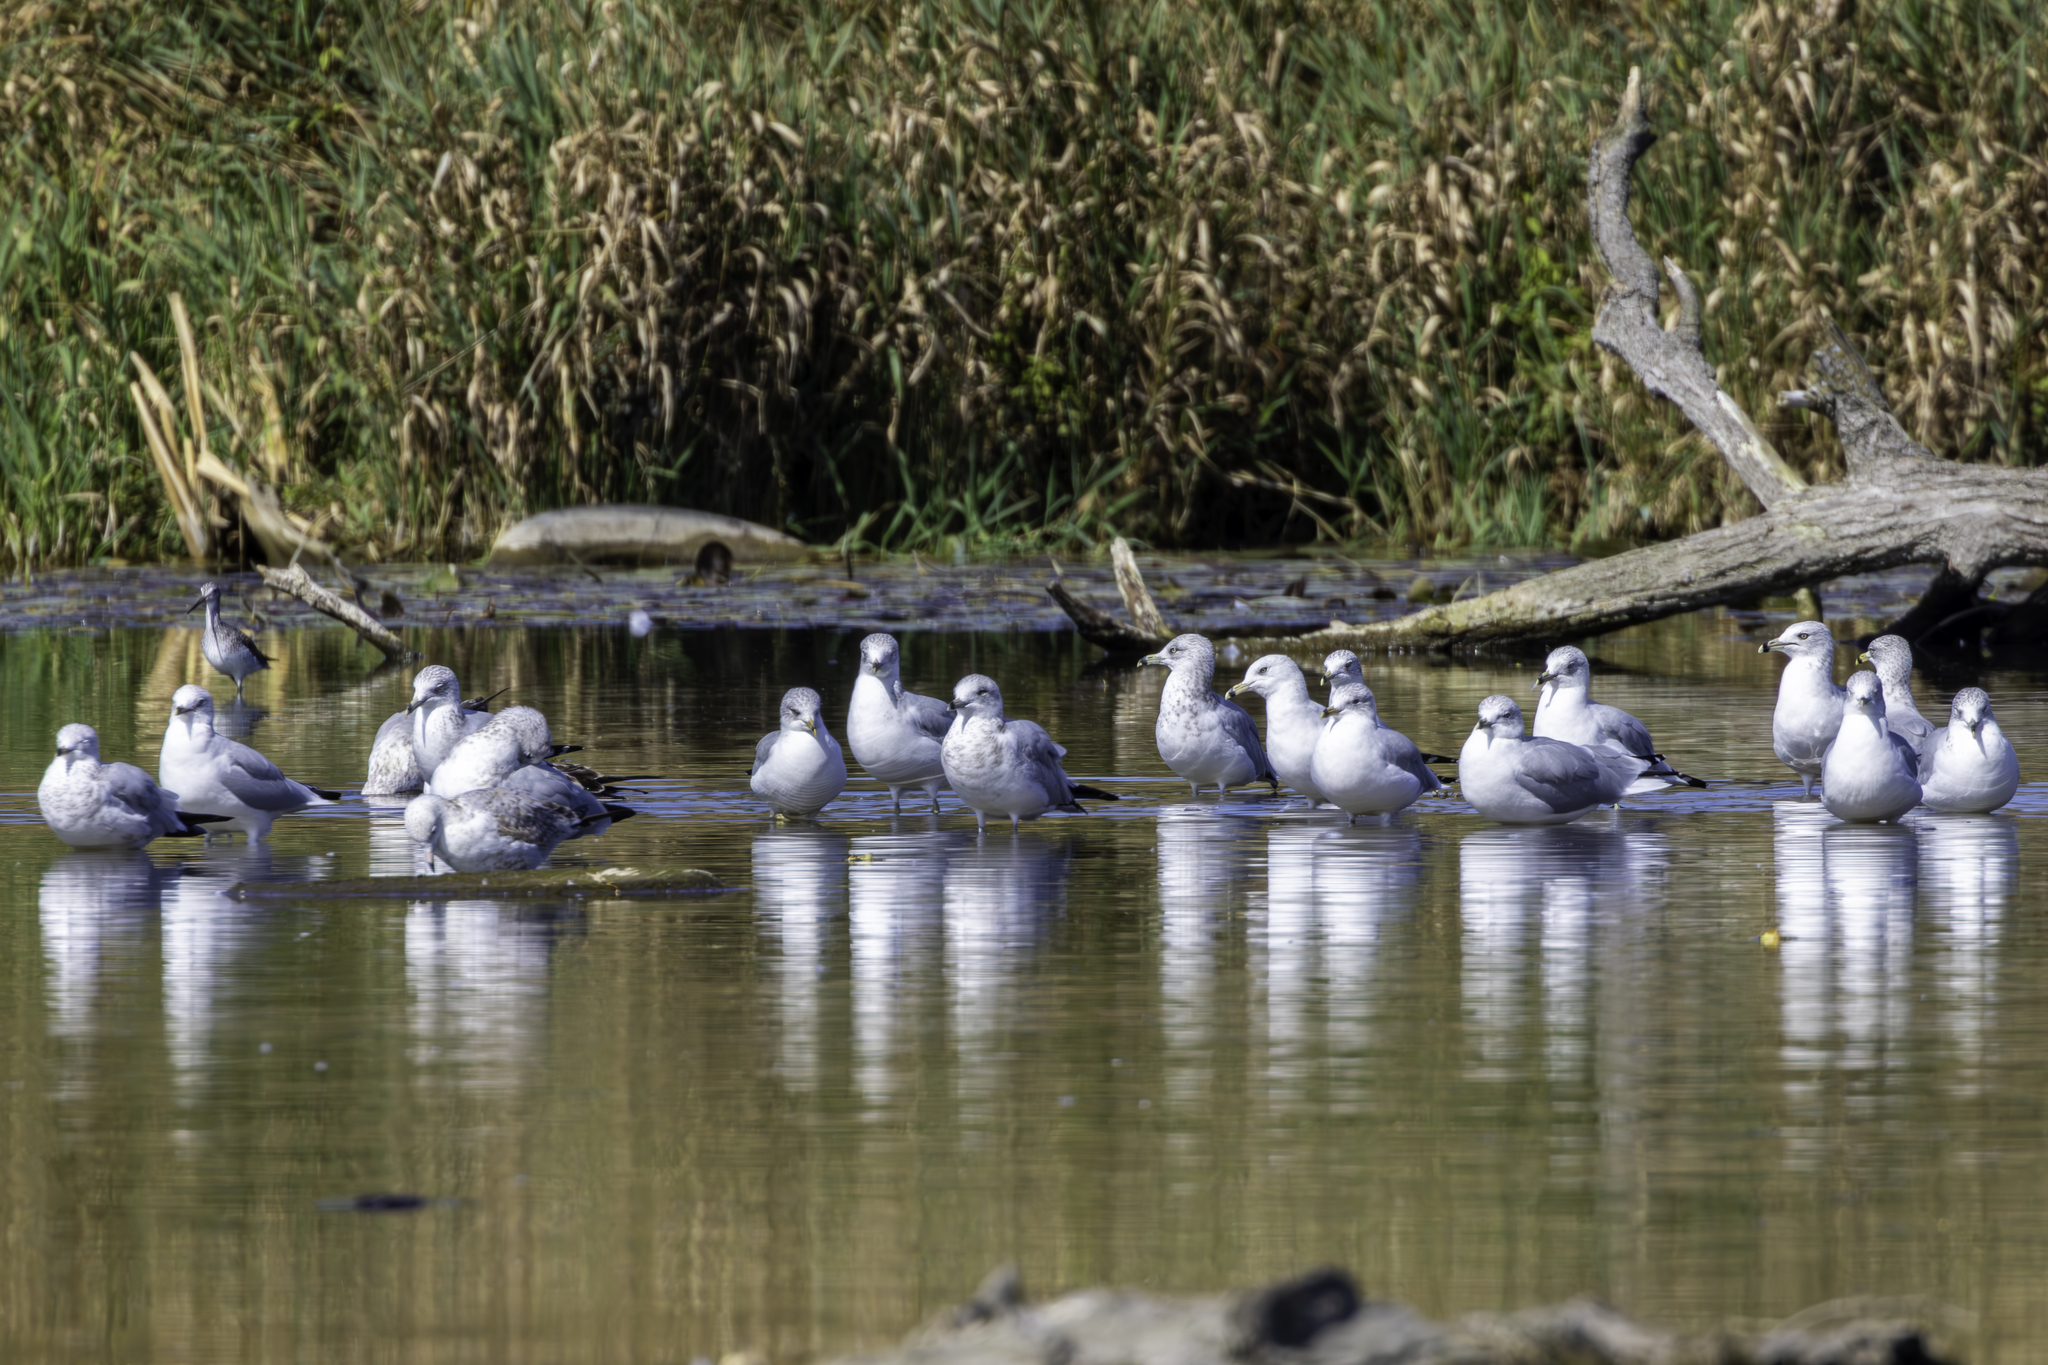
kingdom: Animalia
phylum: Chordata
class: Aves
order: Charadriiformes
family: Laridae
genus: Larus
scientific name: Larus delawarensis
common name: Ring-billed gull
